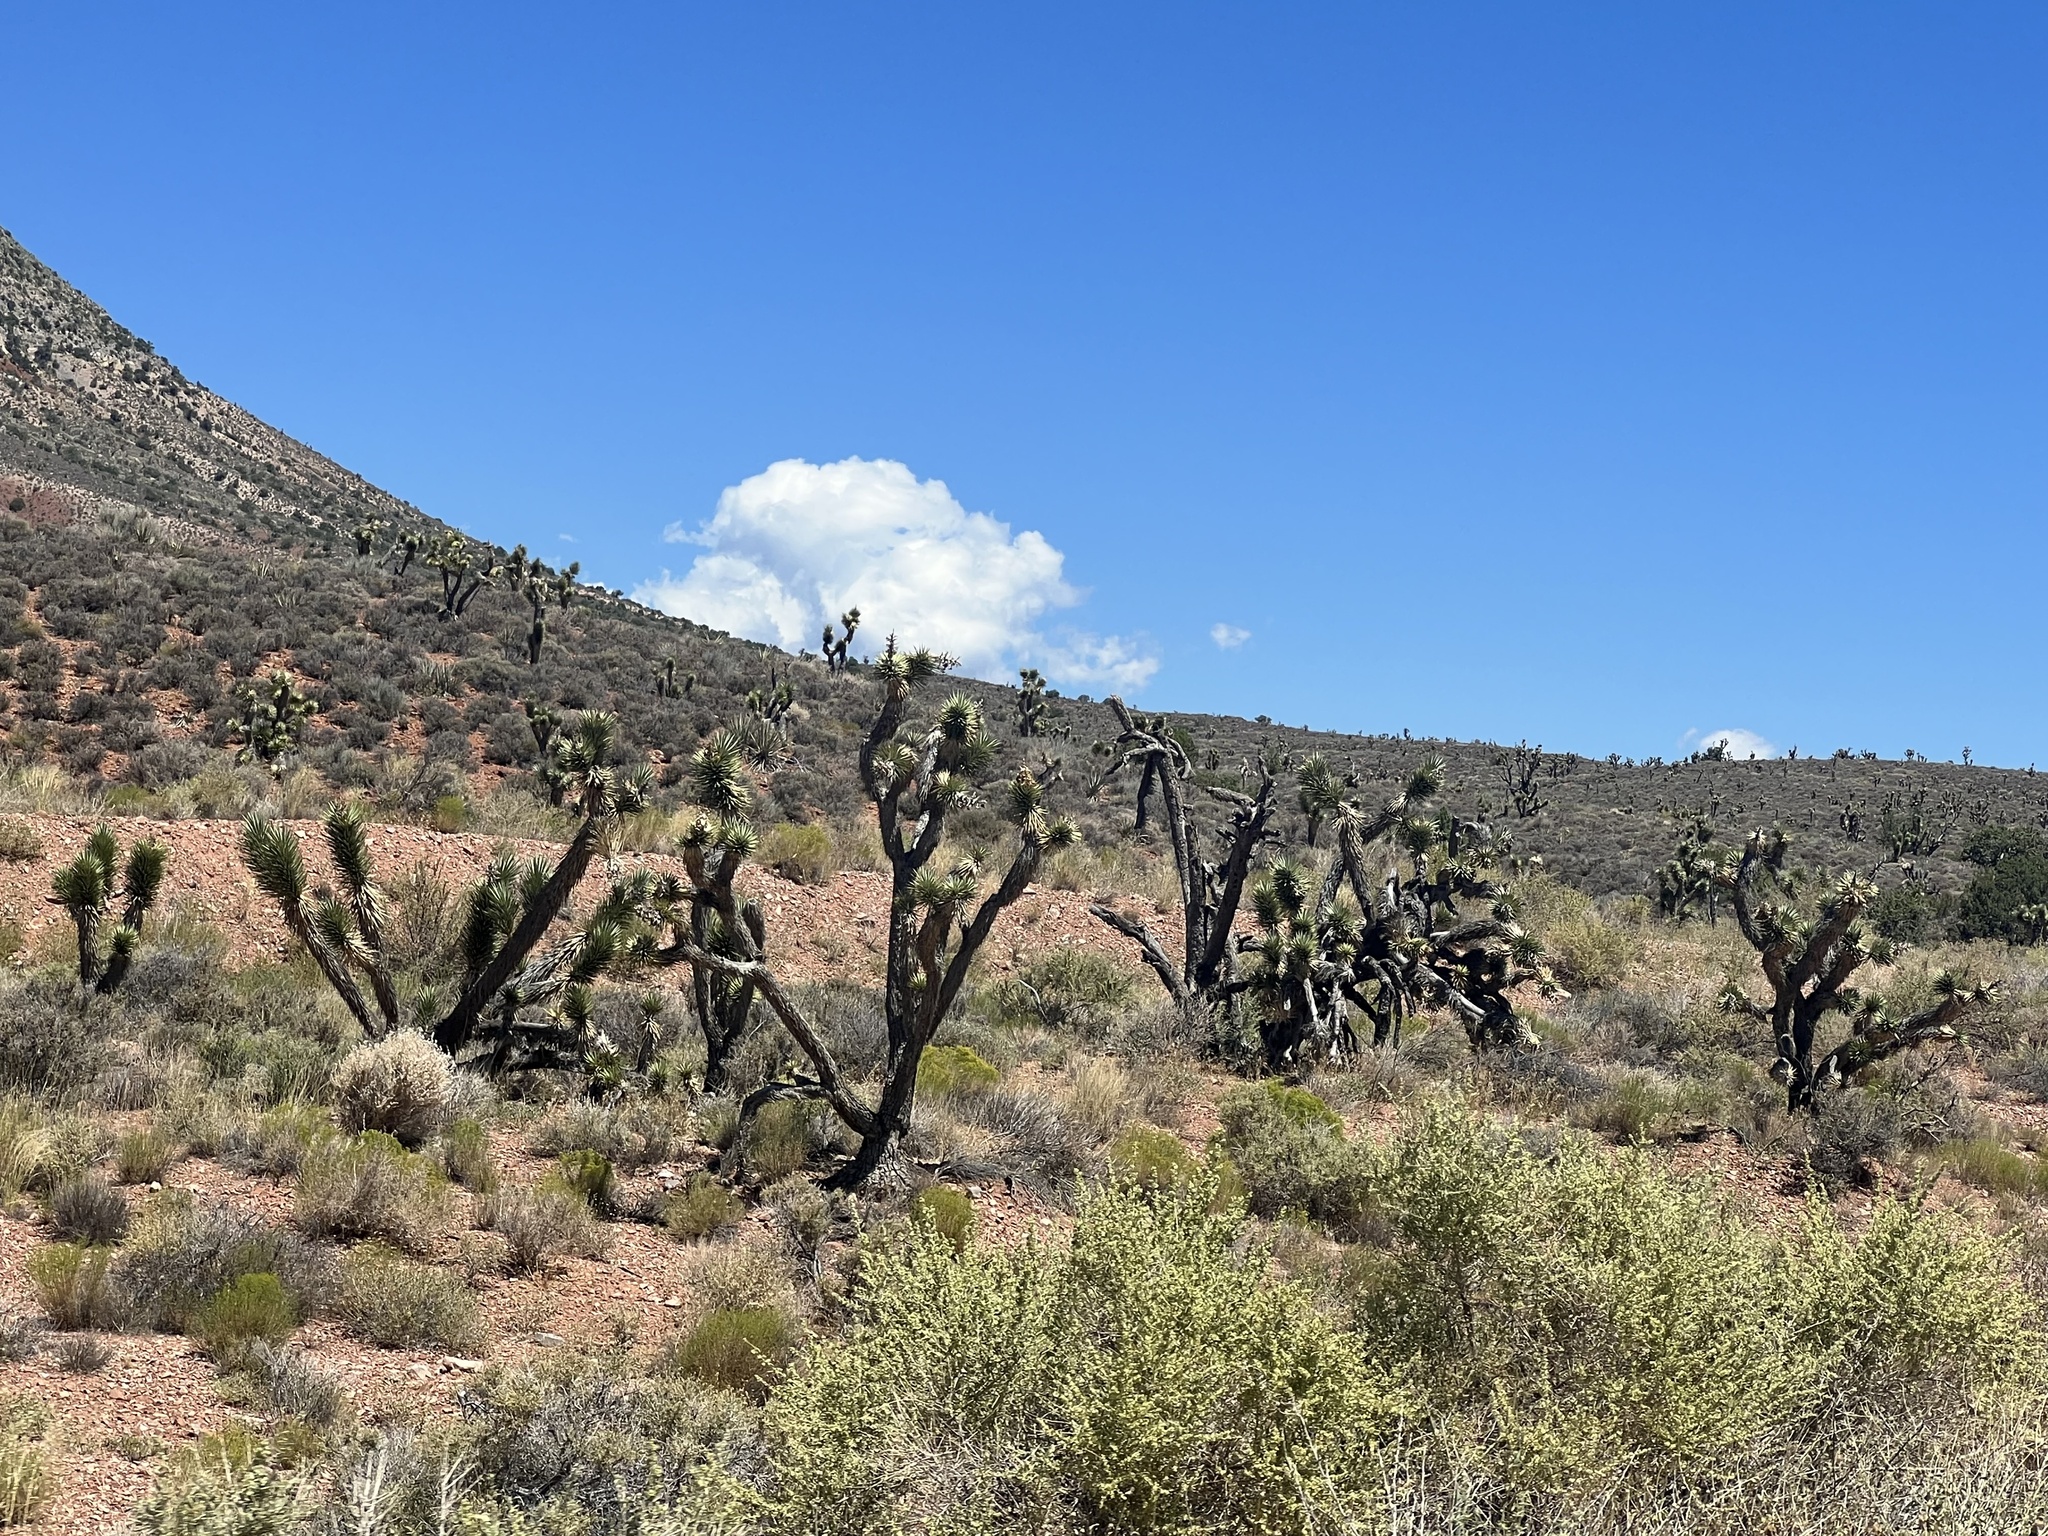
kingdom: Plantae
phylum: Tracheophyta
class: Liliopsida
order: Asparagales
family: Asparagaceae
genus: Yucca
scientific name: Yucca brevifolia
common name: Joshua tree
